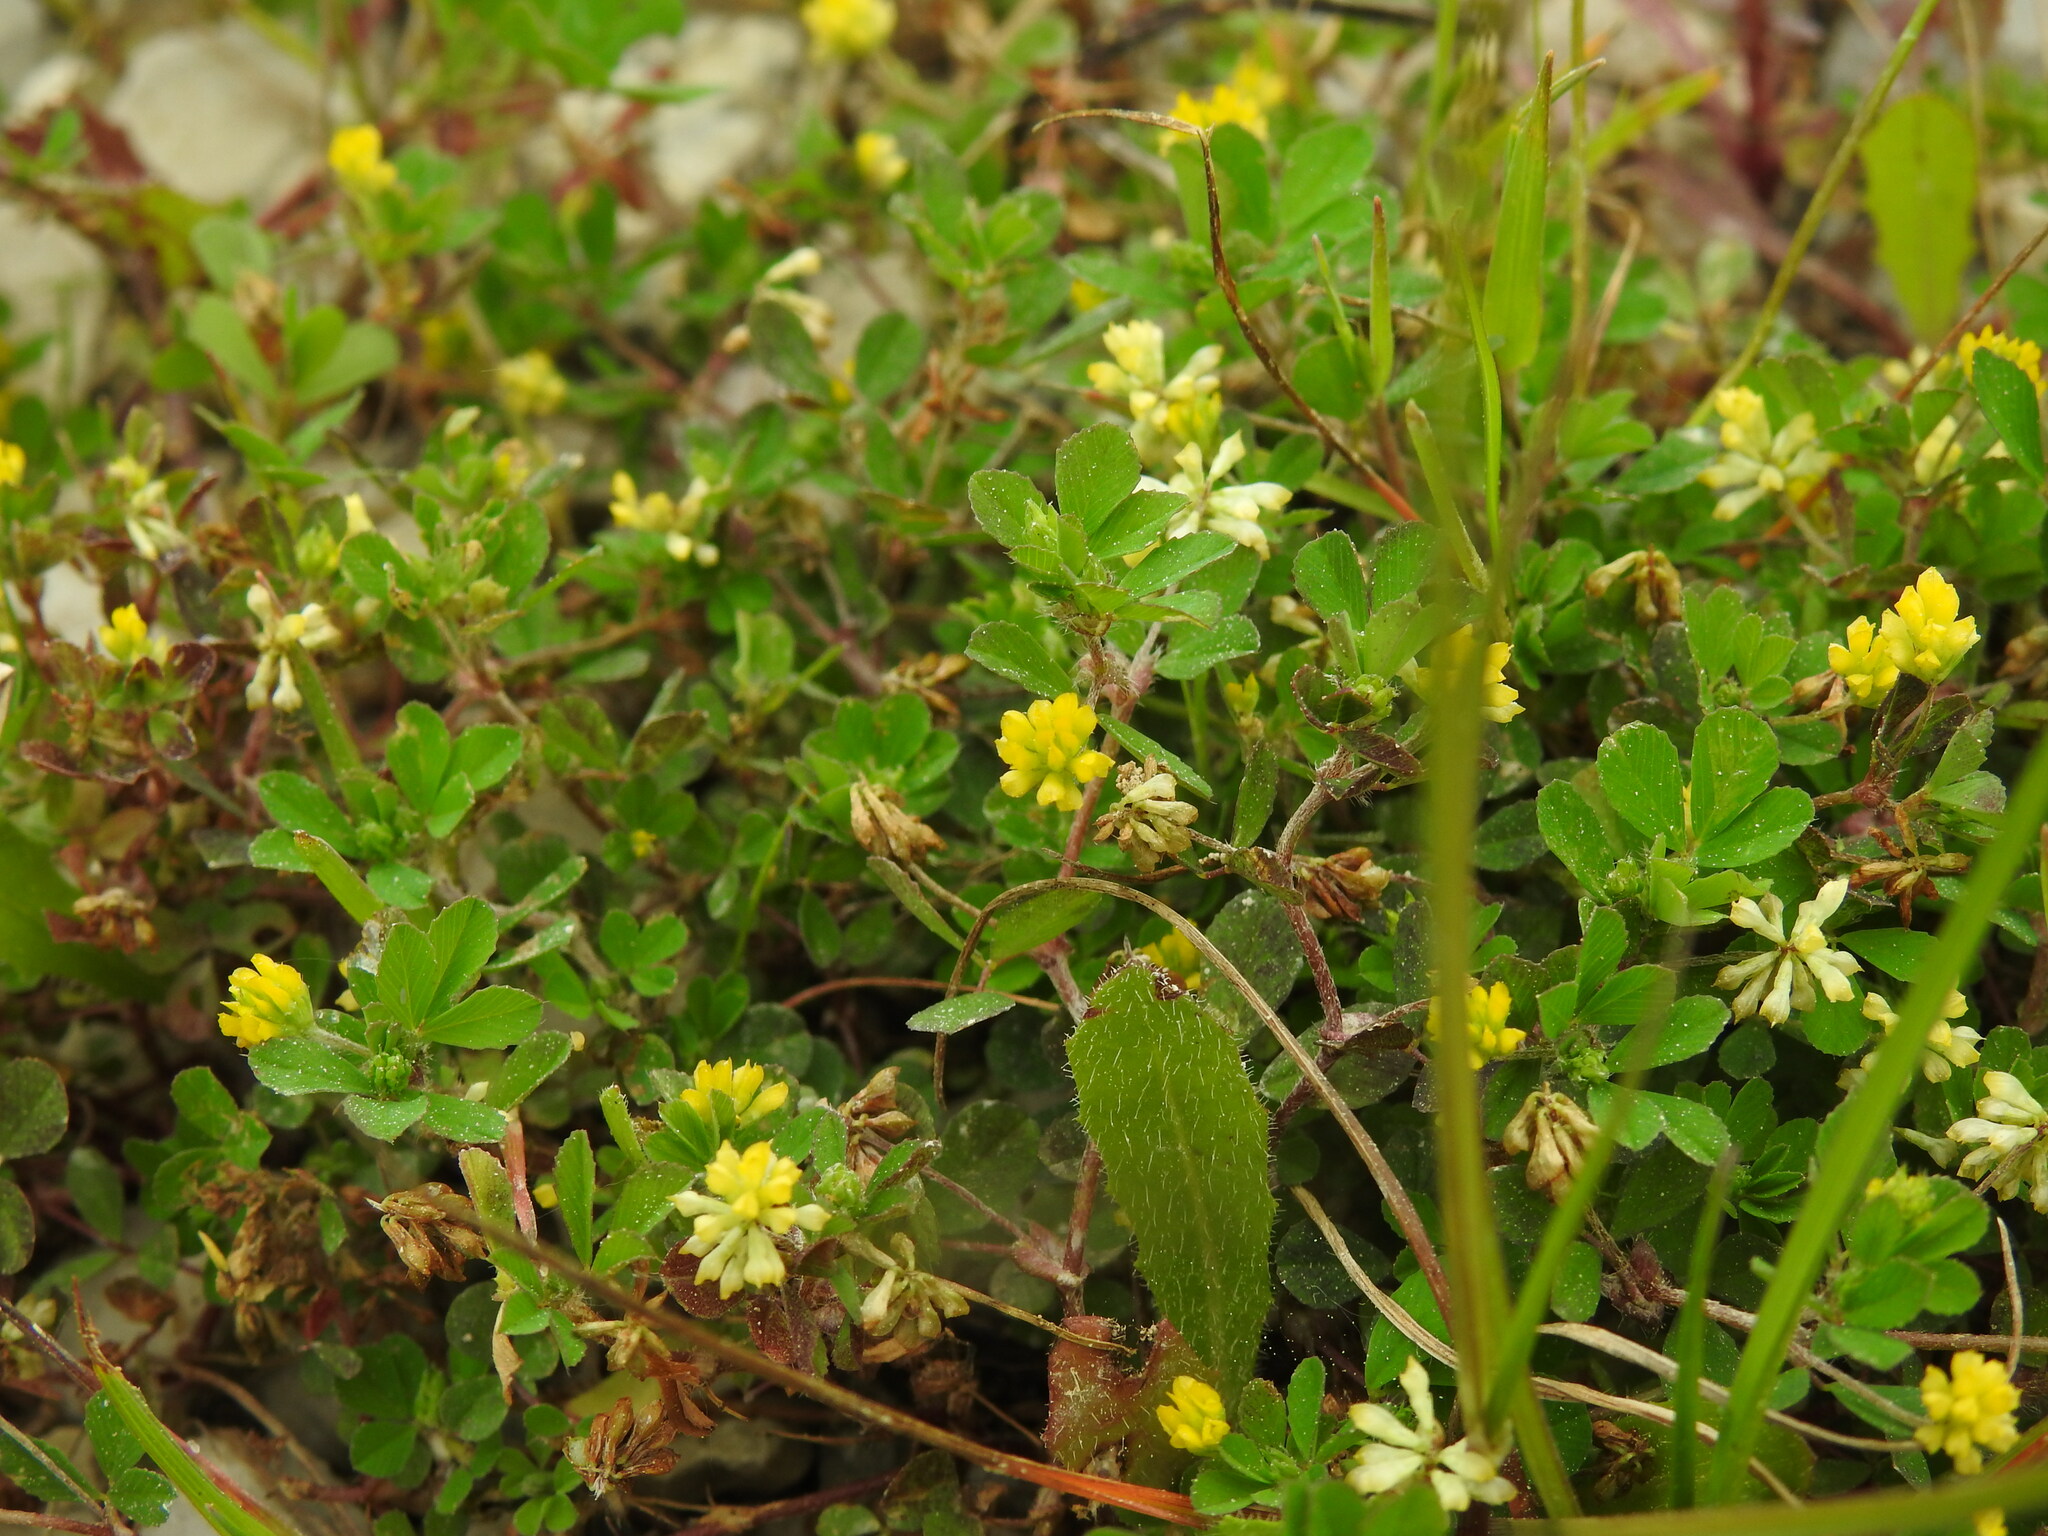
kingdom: Plantae
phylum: Tracheophyta
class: Magnoliopsida
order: Fabales
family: Fabaceae
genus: Trifolium
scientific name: Trifolium dubium
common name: Suckling clover
